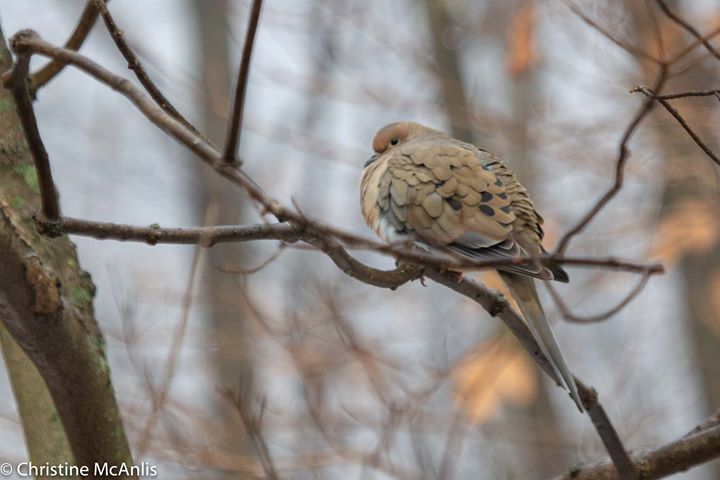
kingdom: Animalia
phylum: Chordata
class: Aves
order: Columbiformes
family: Columbidae
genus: Zenaida
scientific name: Zenaida macroura
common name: Mourning dove
